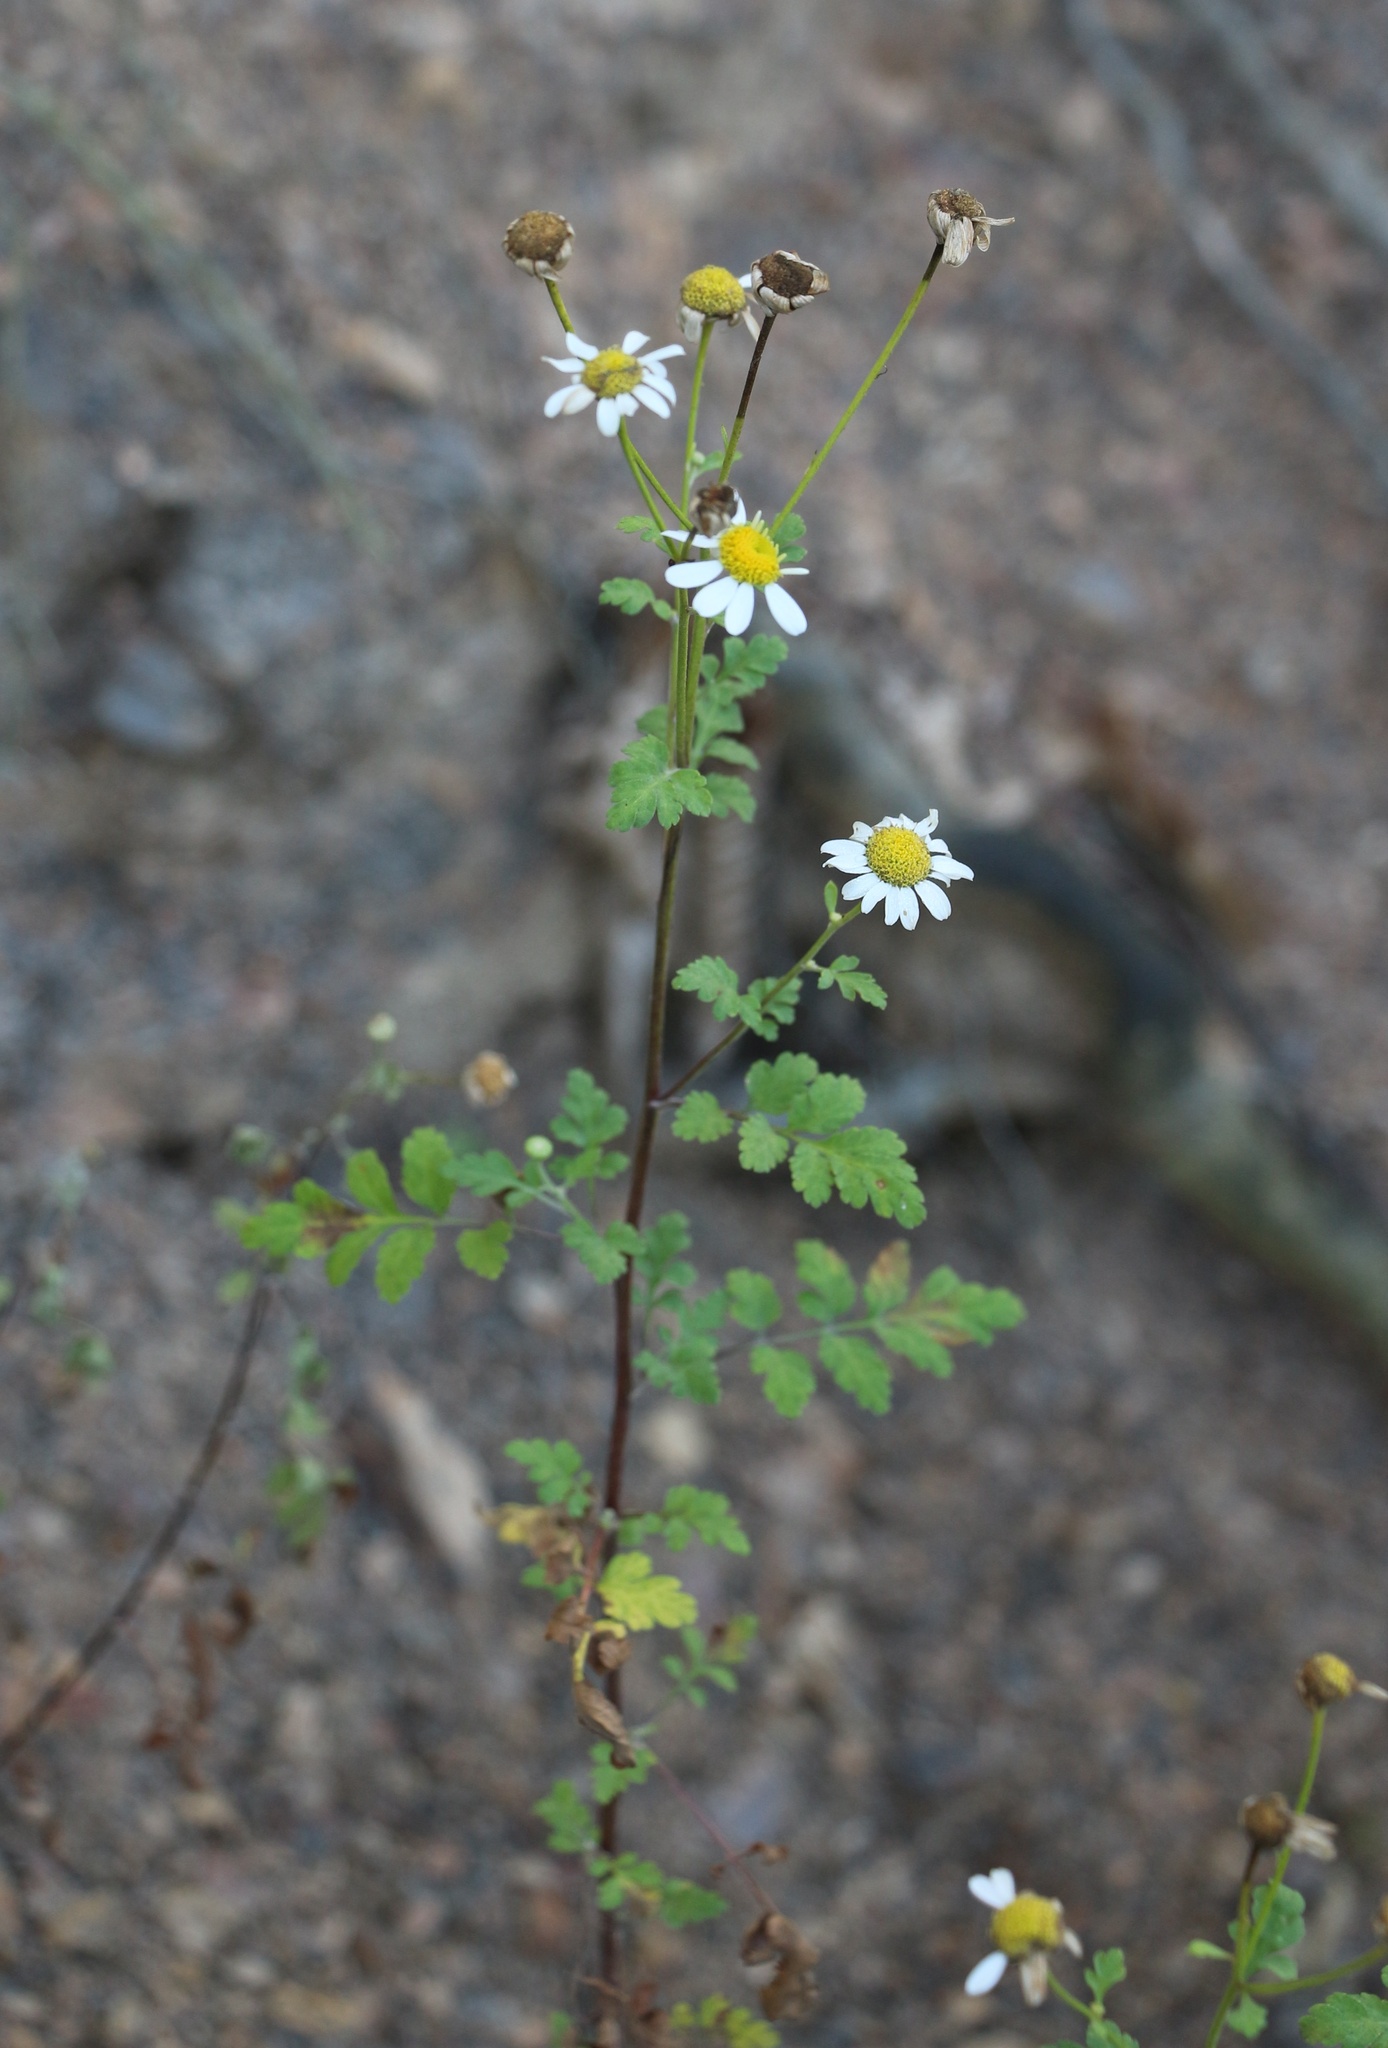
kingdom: Plantae
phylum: Tracheophyta
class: Magnoliopsida
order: Asterales
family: Asteraceae
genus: Tanacetum
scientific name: Tanacetum partheniifolium
